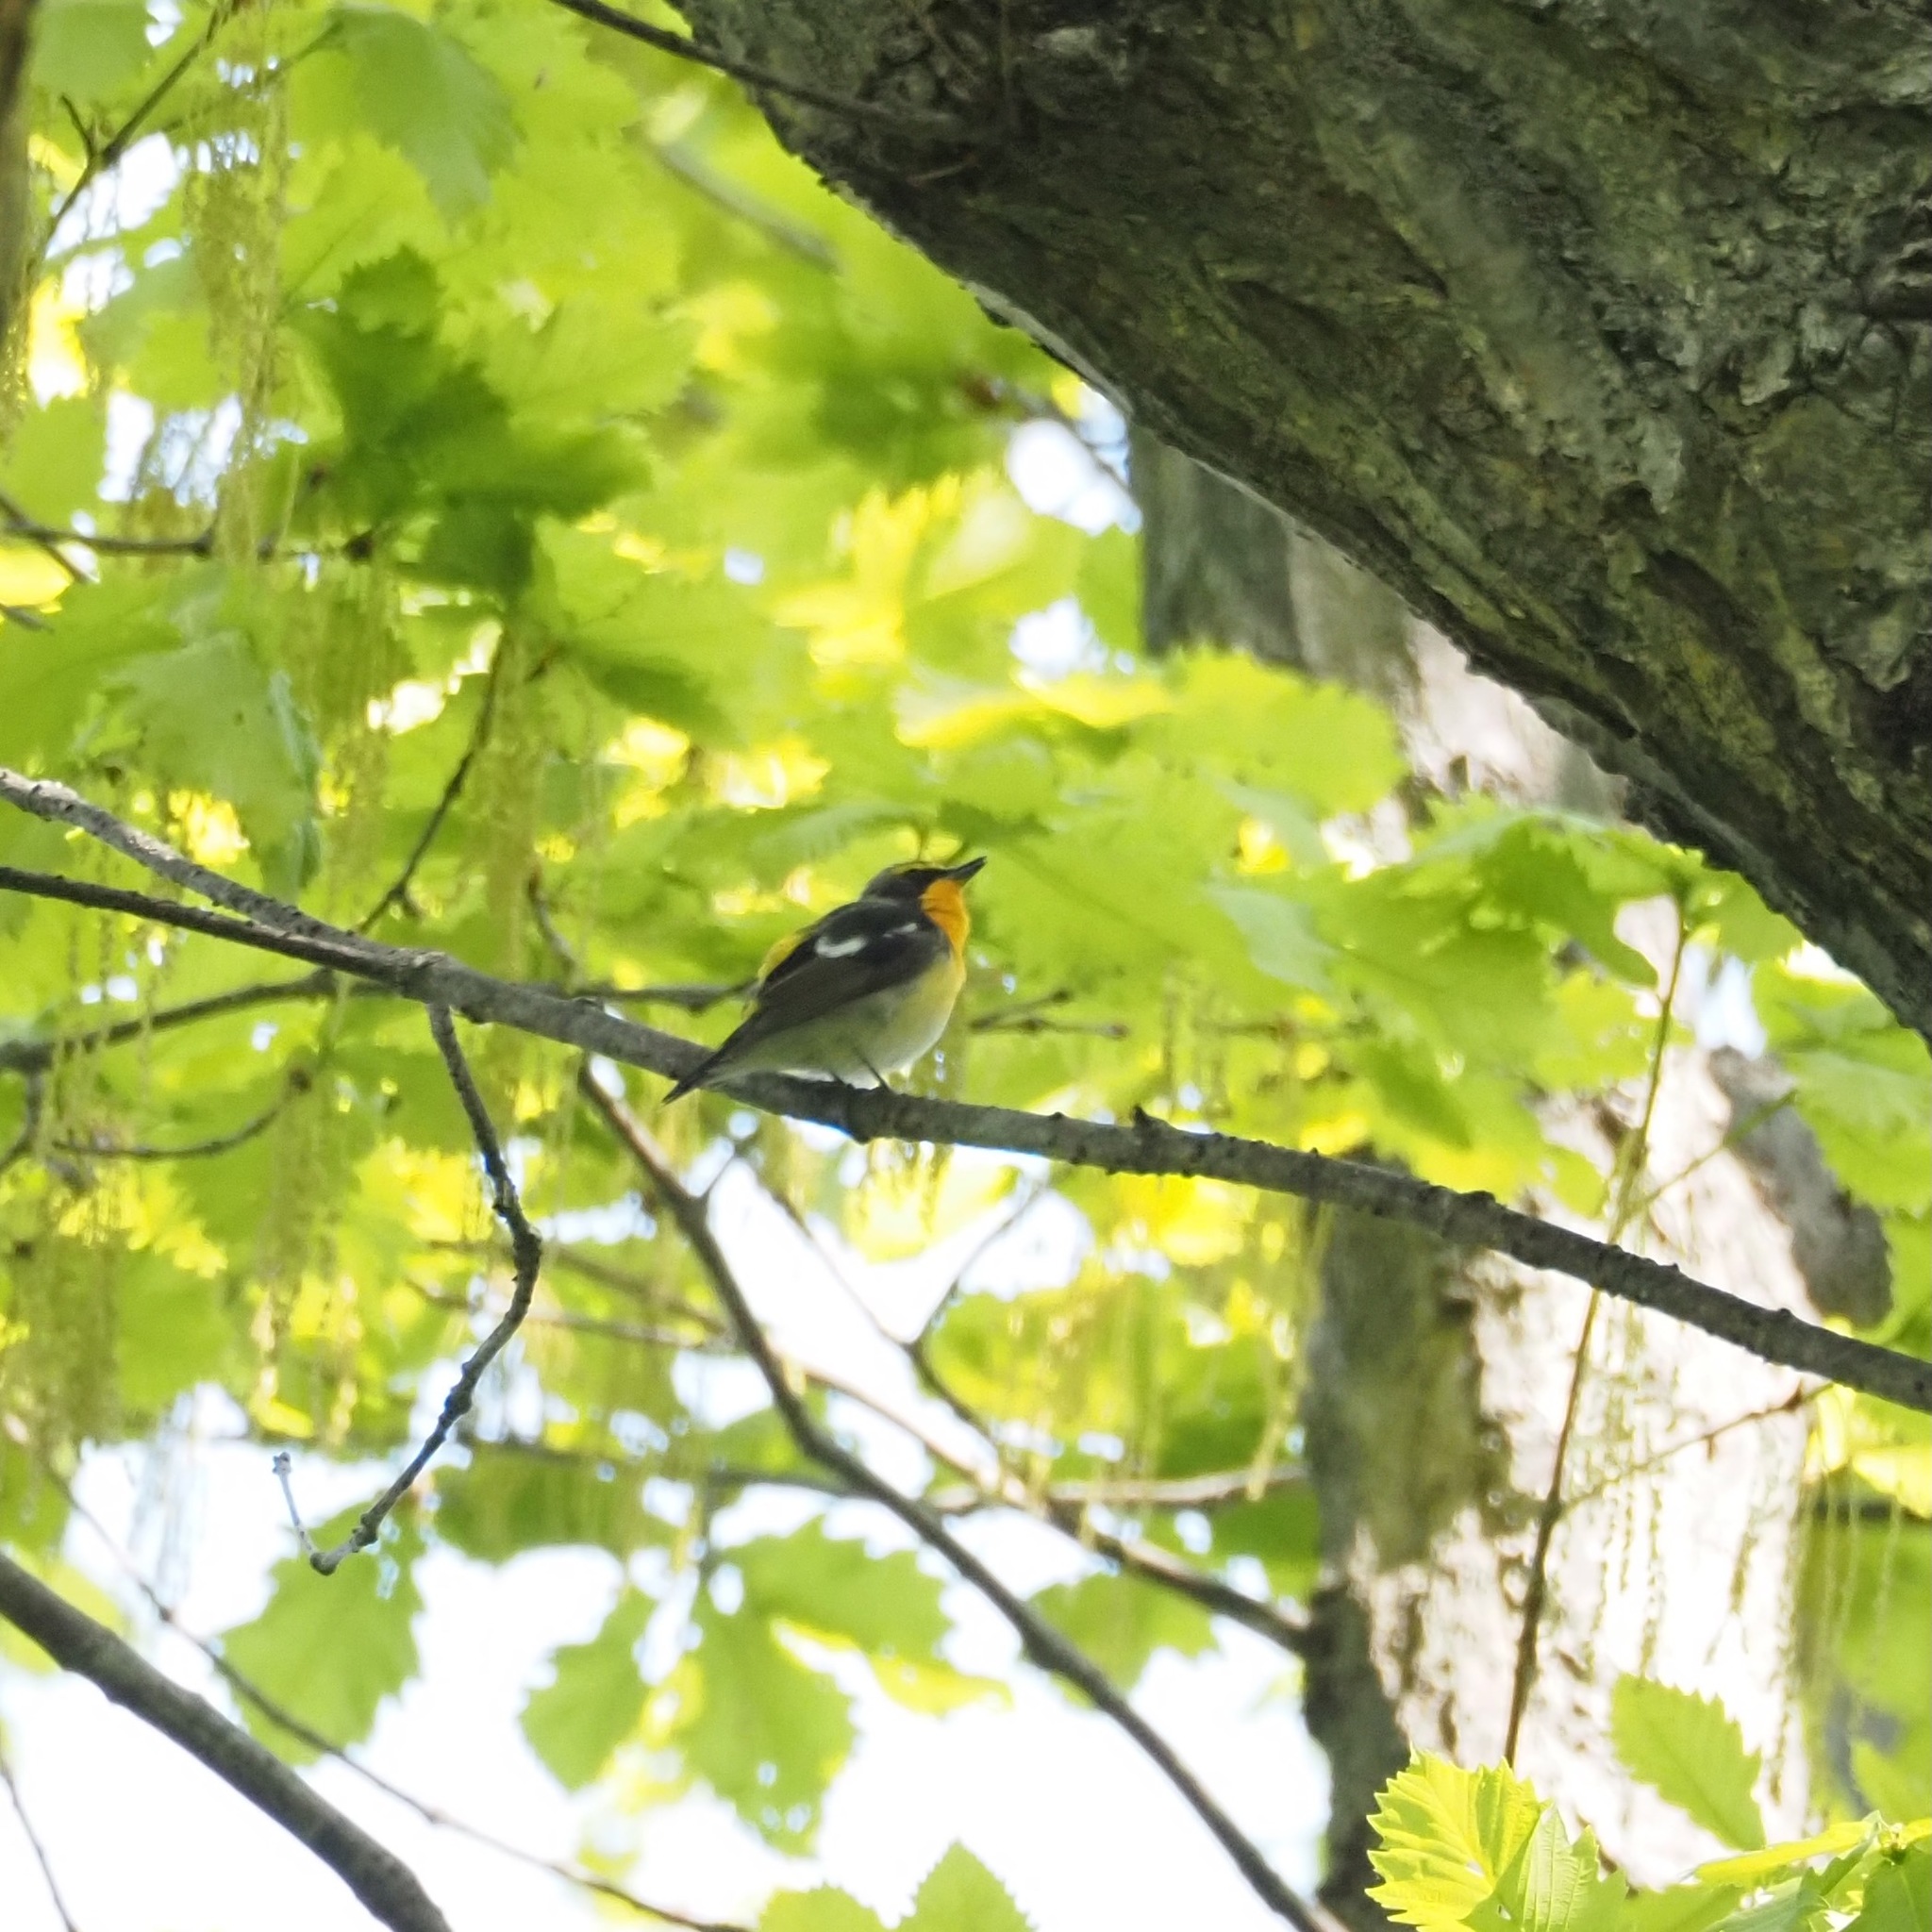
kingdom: Animalia
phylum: Chordata
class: Aves
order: Passeriformes
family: Muscicapidae
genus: Ficedula
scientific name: Ficedula narcissina
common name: Narcissus flycatcher
